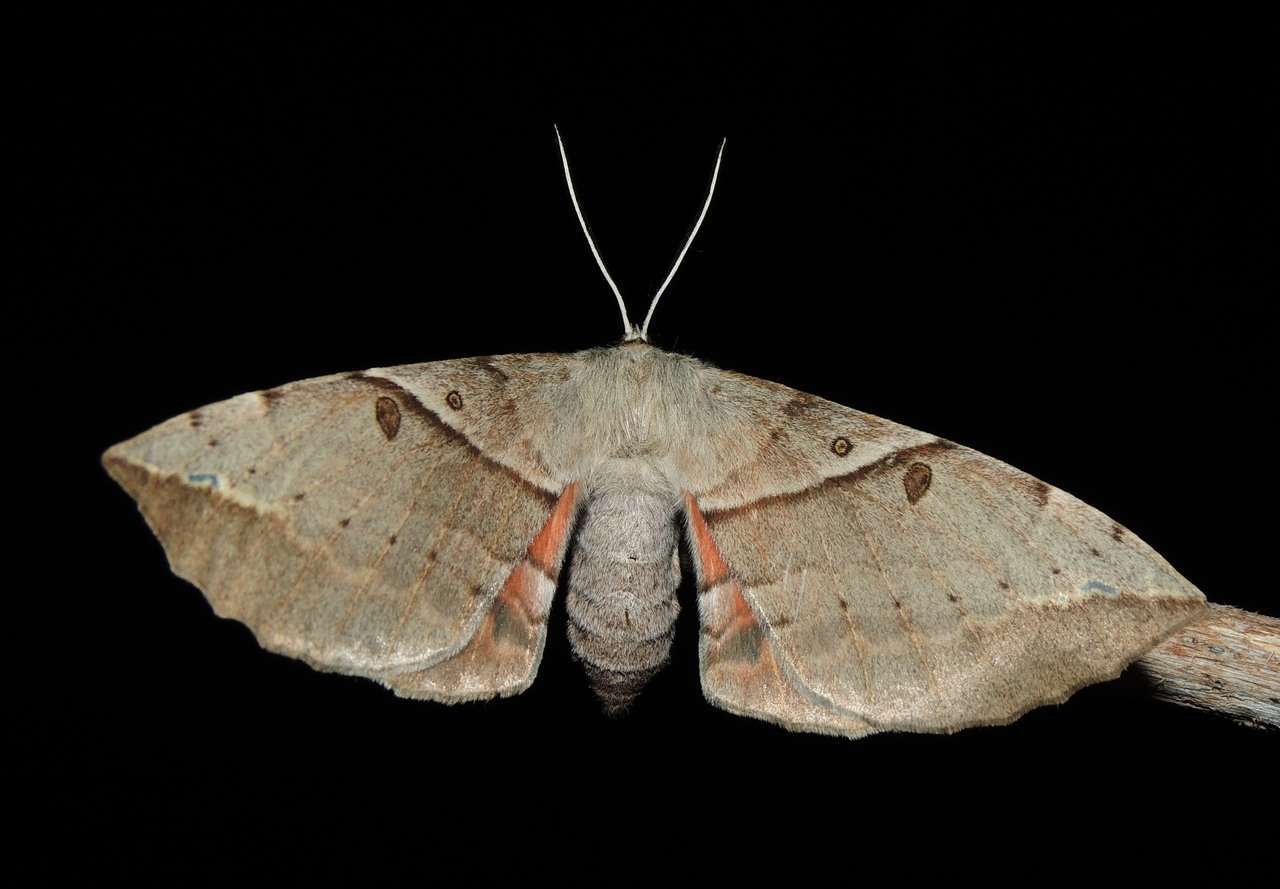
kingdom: Animalia
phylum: Arthropoda
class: Insecta
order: Lepidoptera
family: Anthelidae
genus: Chelepteryx
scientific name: Chelepteryx chalepteryx
